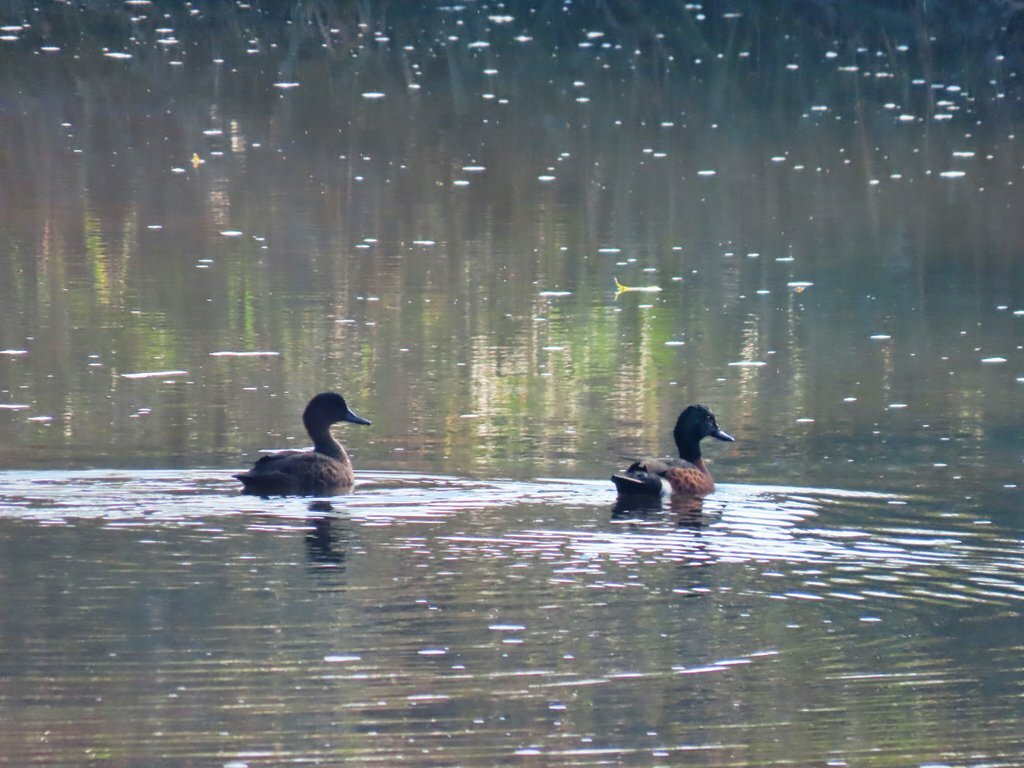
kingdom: Animalia
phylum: Chordata
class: Aves
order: Anseriformes
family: Anatidae
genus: Anas
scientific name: Anas castanea
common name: Chestnut teal
